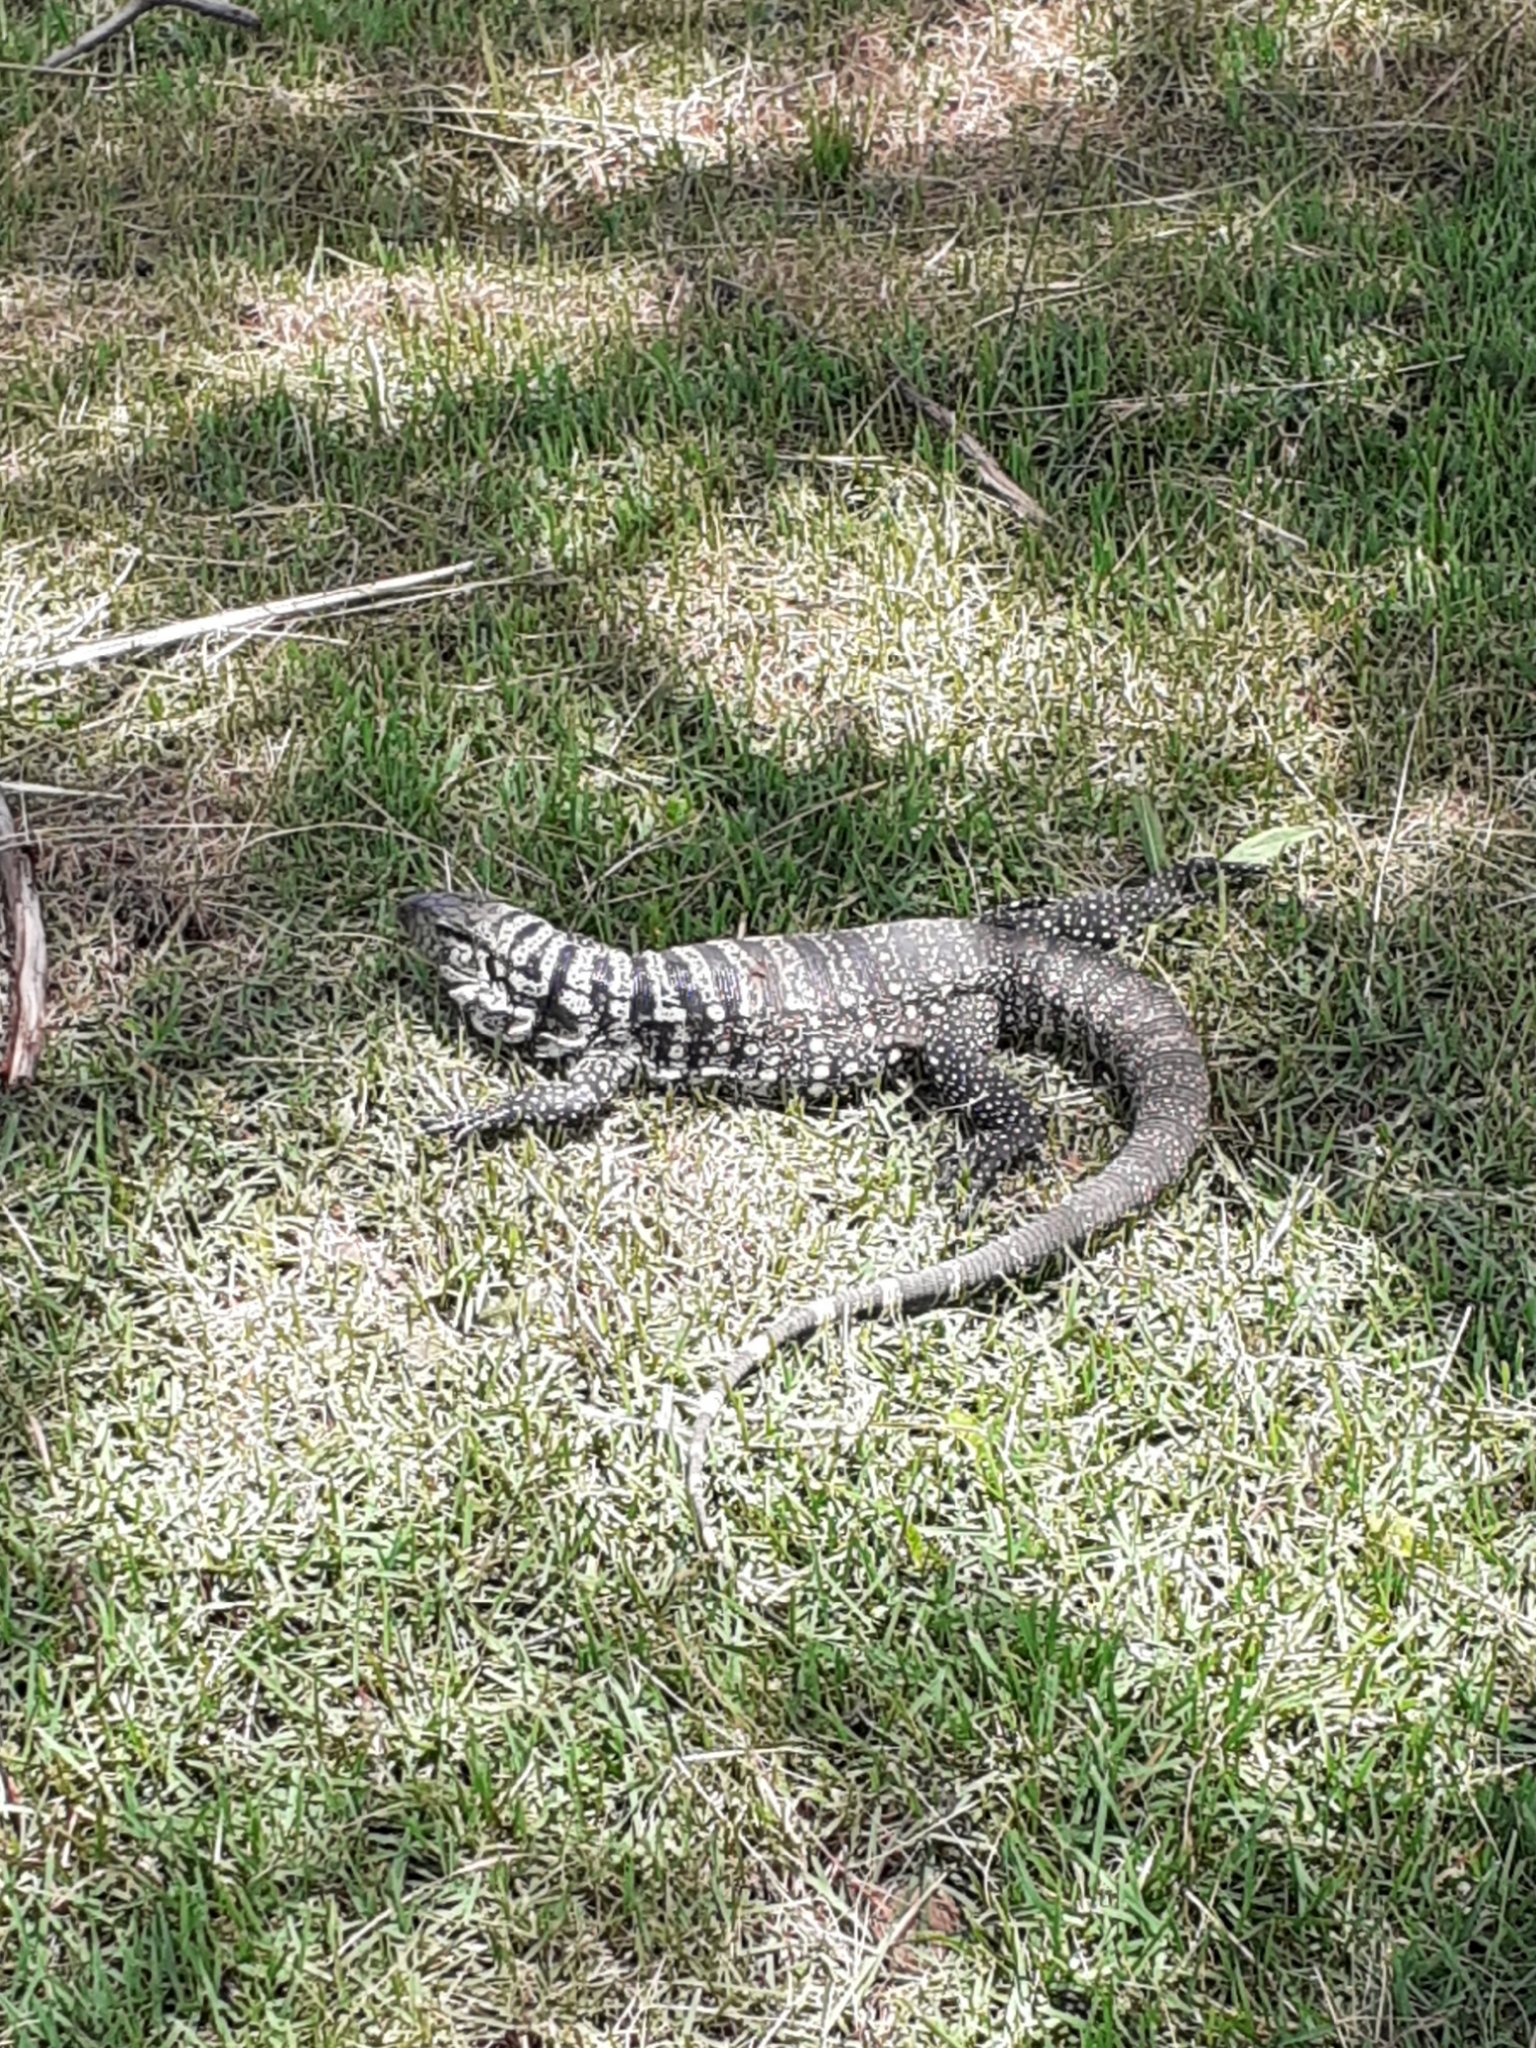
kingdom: Animalia
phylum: Chordata
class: Squamata
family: Teiidae
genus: Salvator
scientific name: Salvator merianae
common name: Argentine black and white tegu
